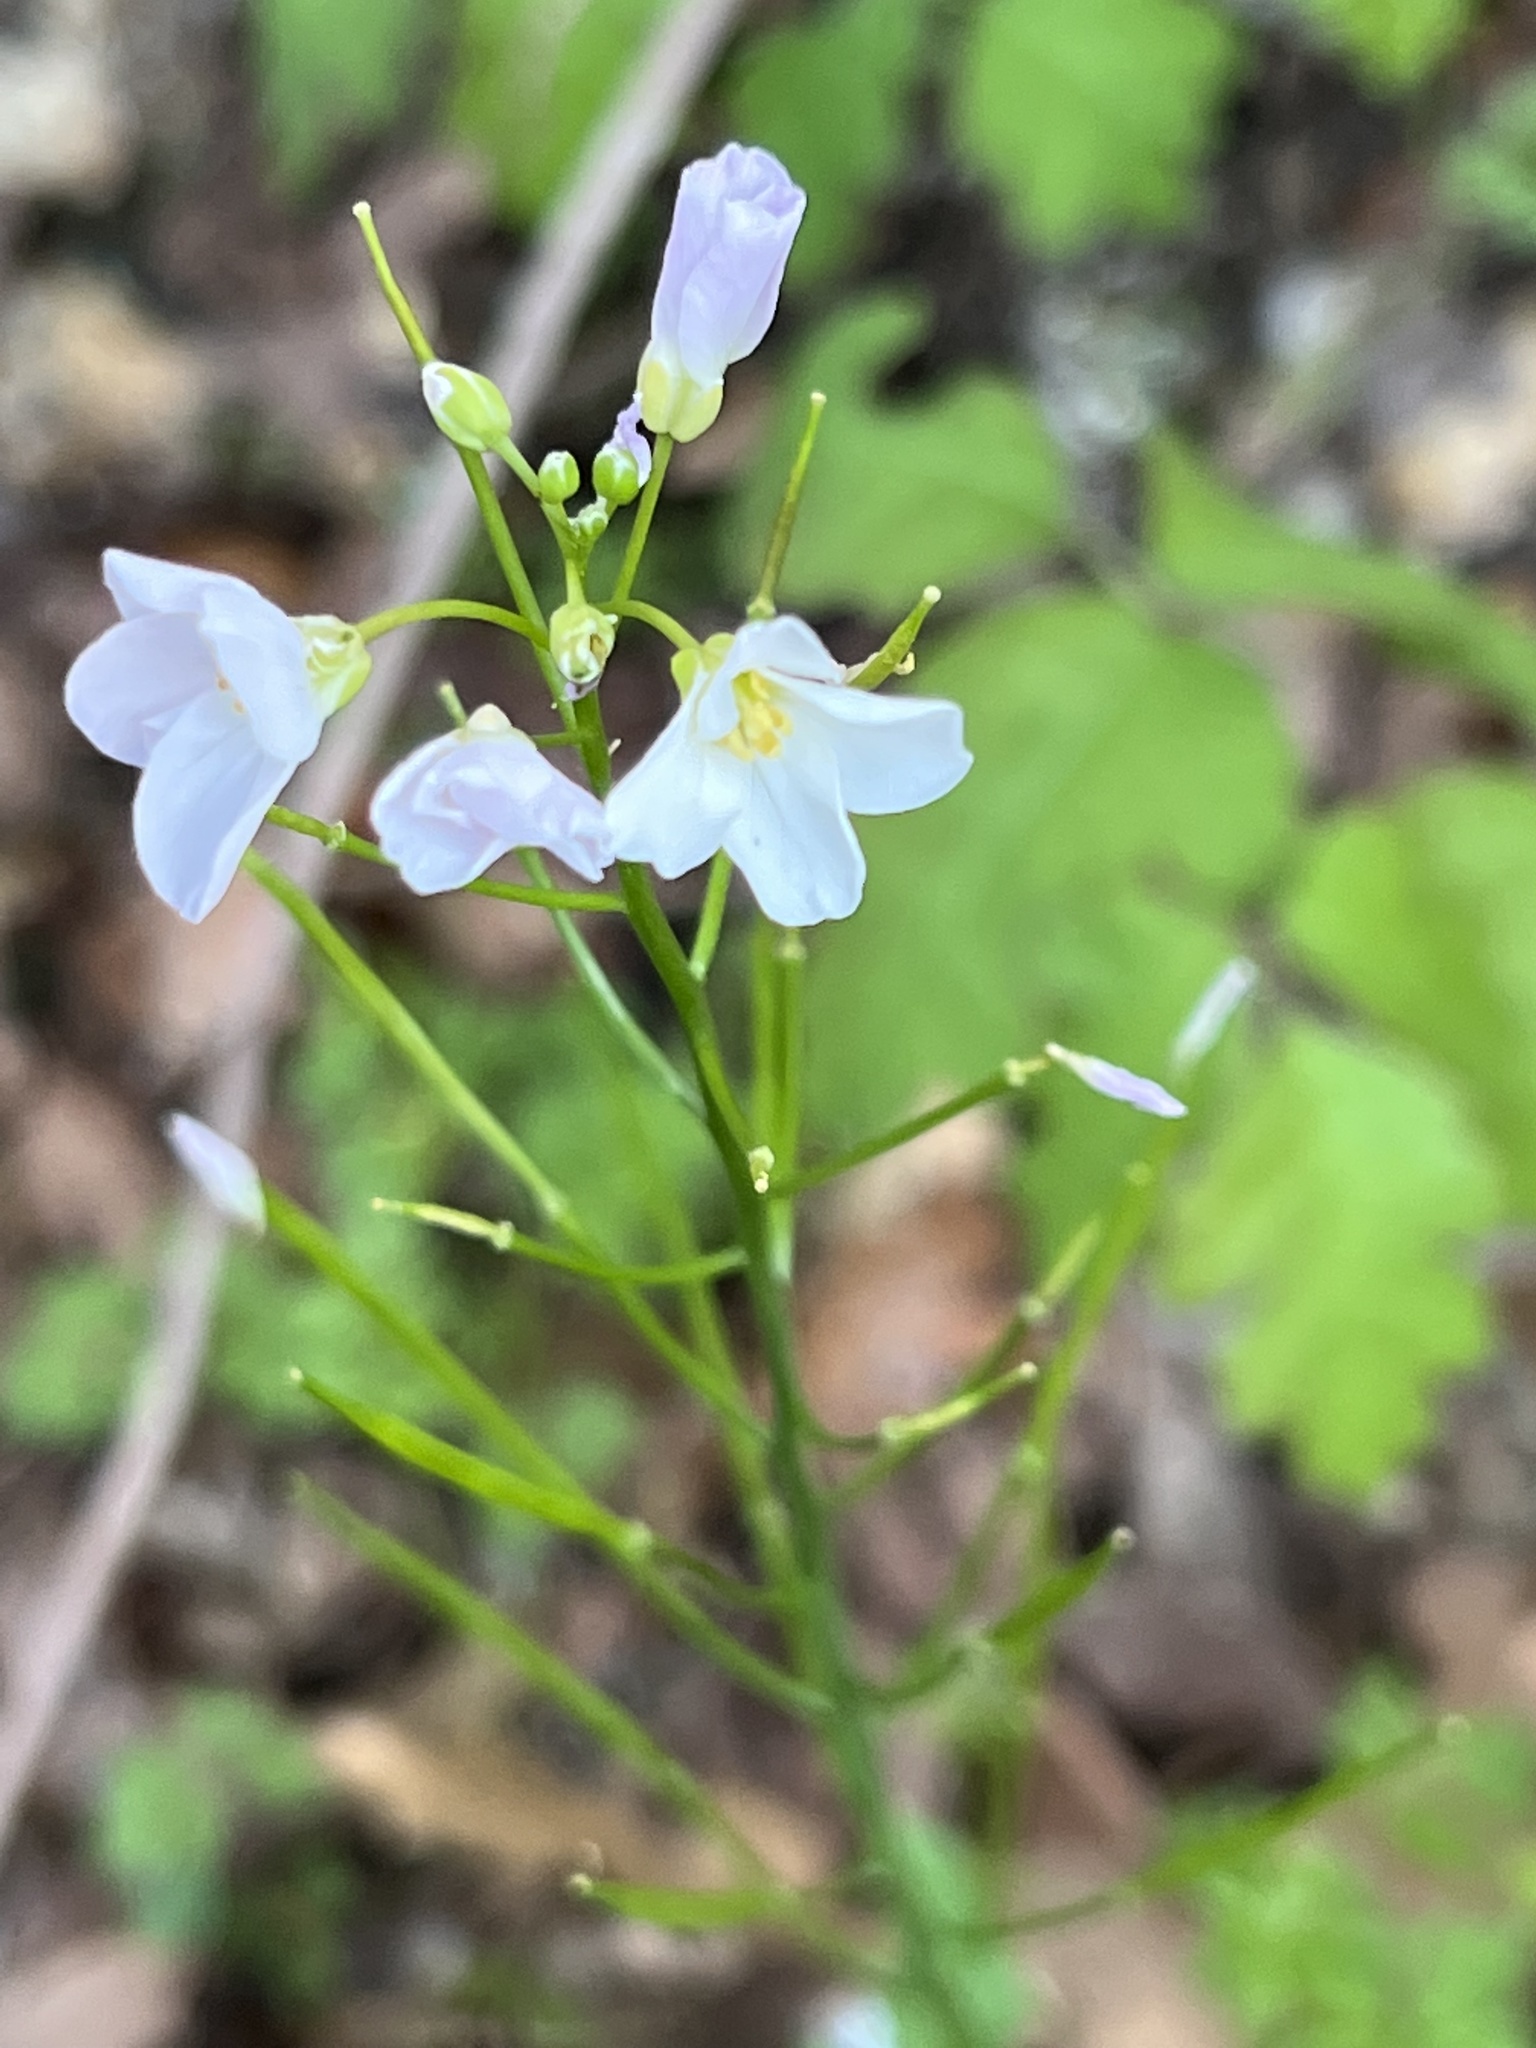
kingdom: Plantae
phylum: Tracheophyta
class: Magnoliopsida
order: Brassicales
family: Brassicaceae
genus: Cardamine
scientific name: Cardamine californica
